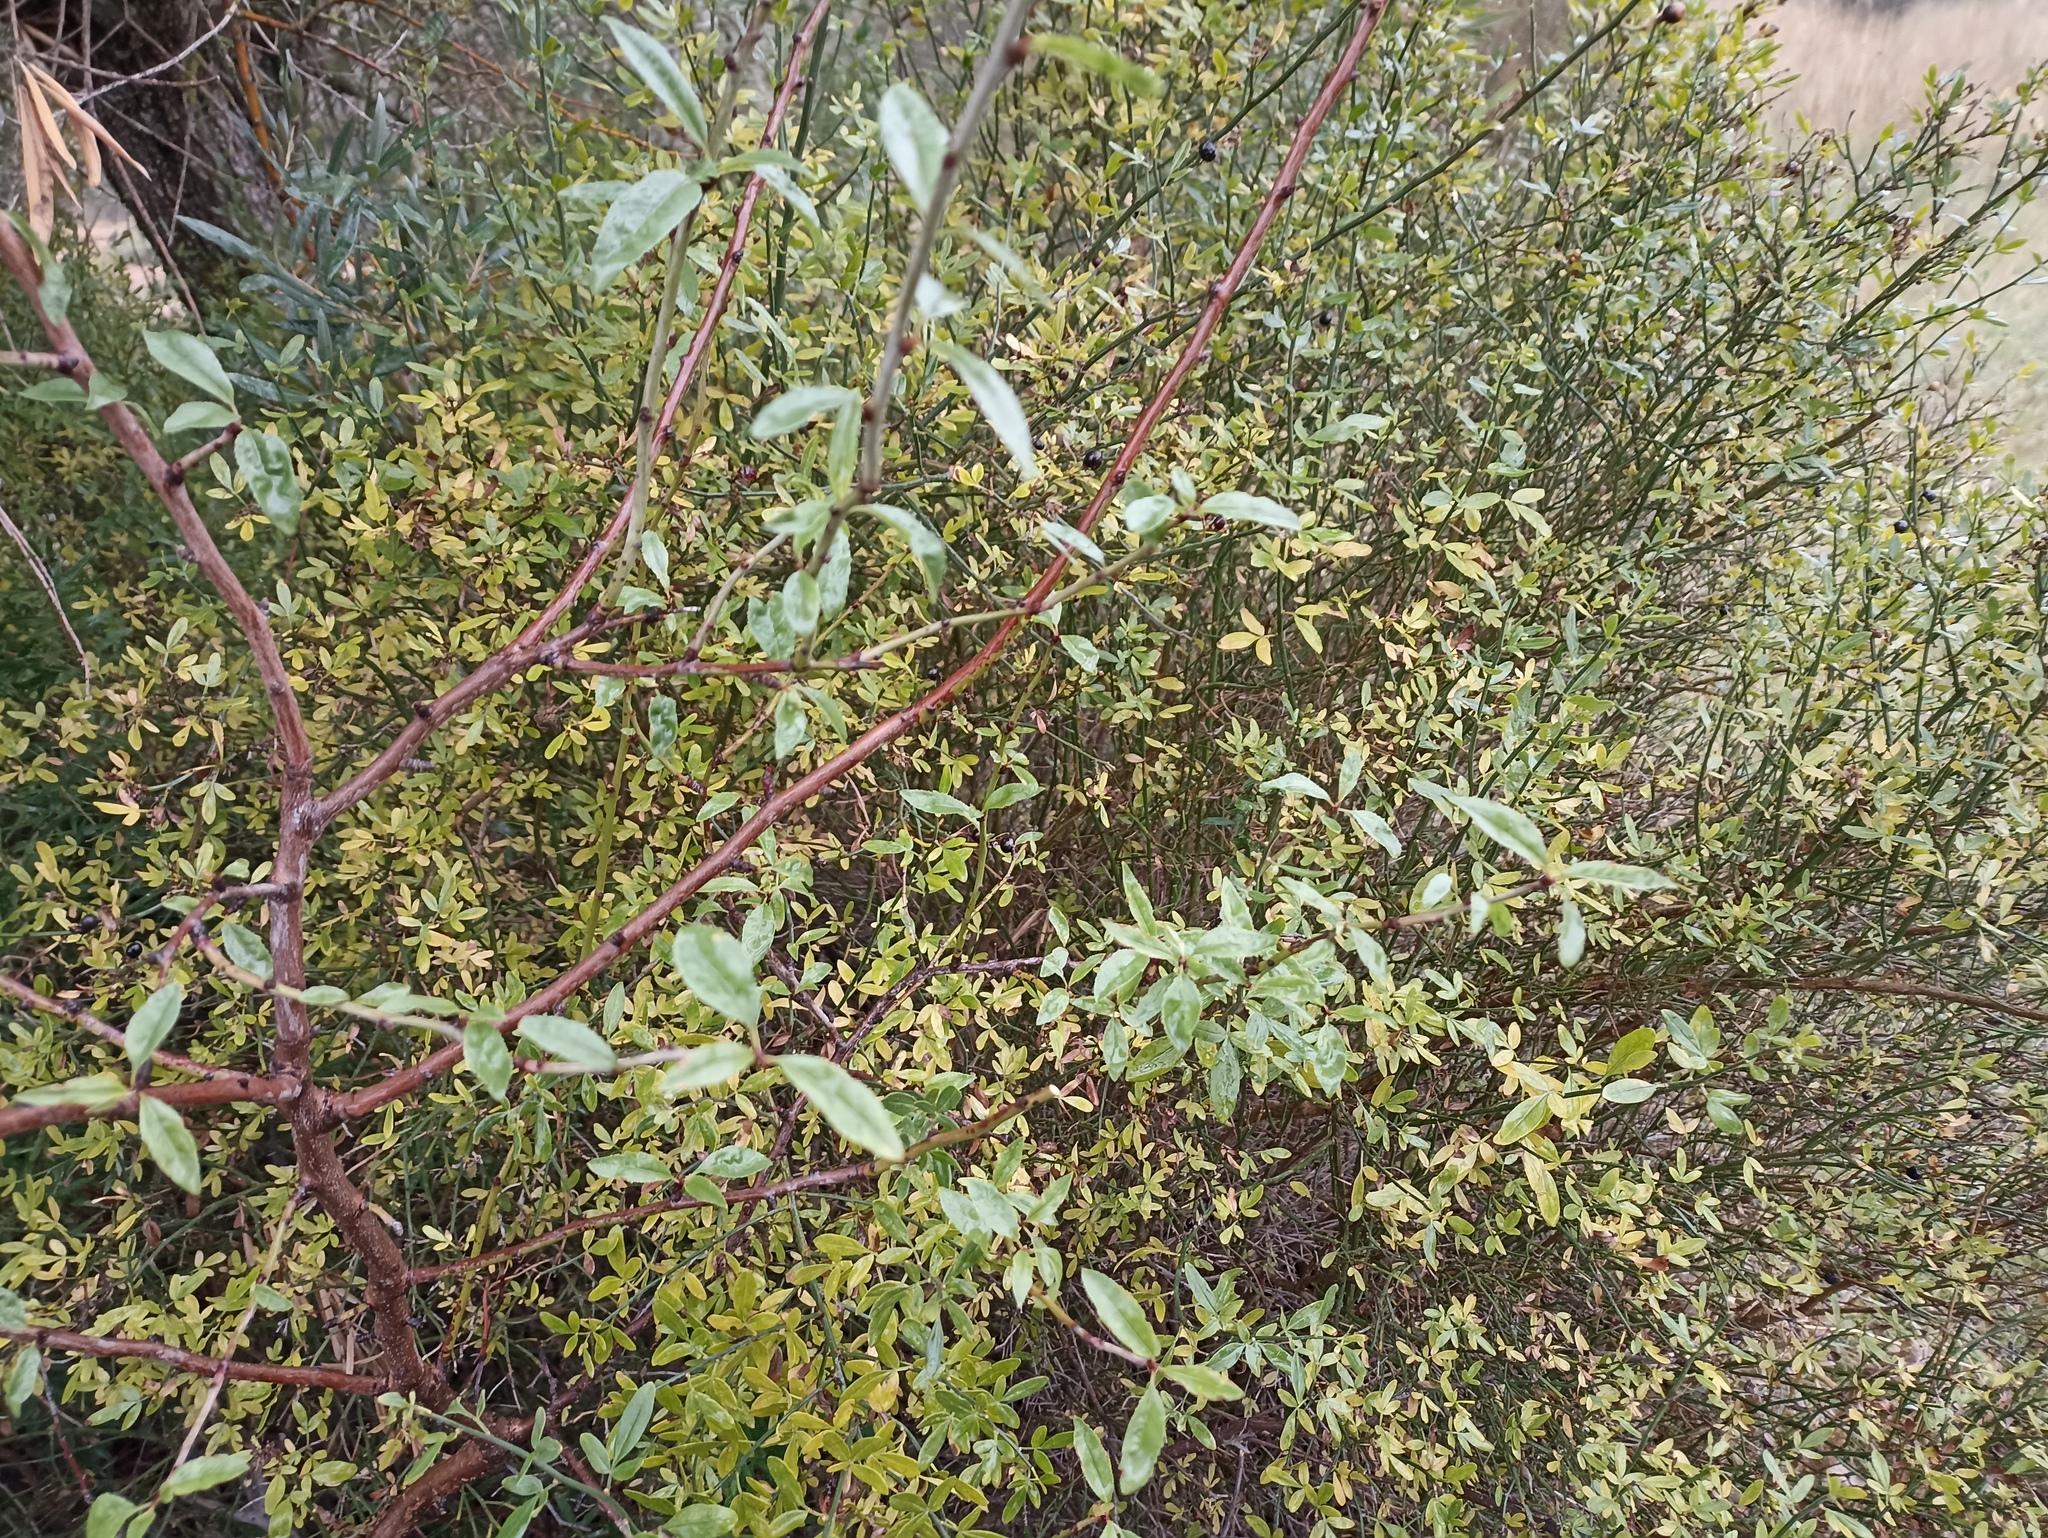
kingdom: Plantae
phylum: Tracheophyta
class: Magnoliopsida
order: Lamiales
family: Oleaceae
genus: Chrysojasminum
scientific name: Chrysojasminum fruticans
